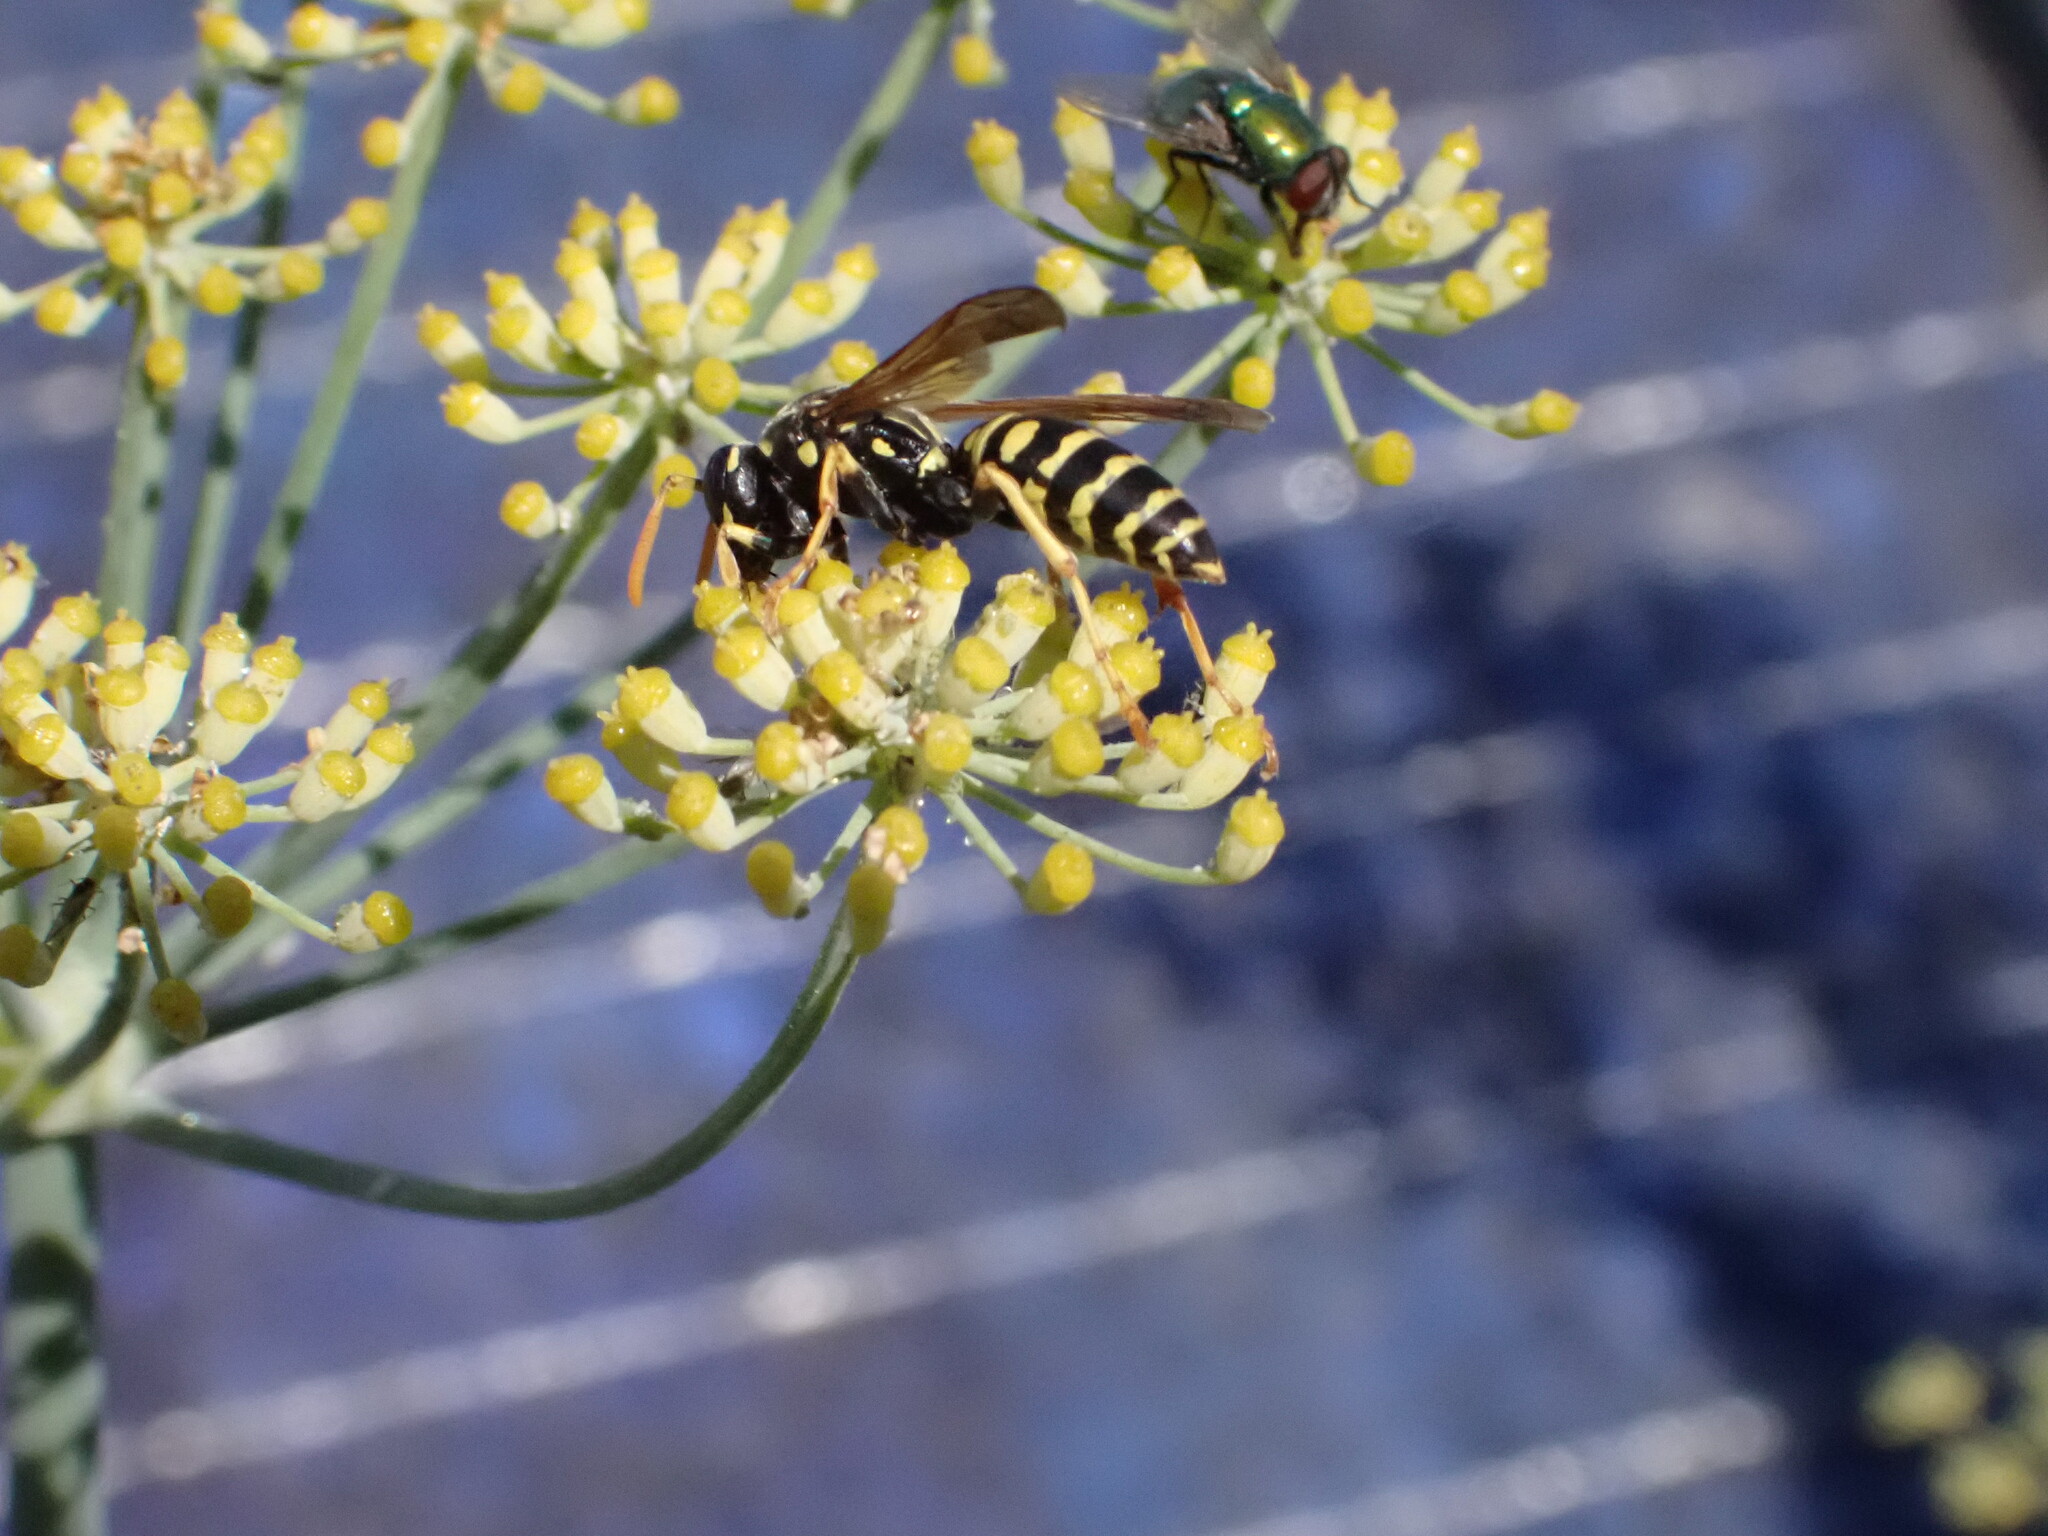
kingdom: Animalia
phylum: Arthropoda
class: Insecta
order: Hymenoptera
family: Eumenidae
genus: Polistes
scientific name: Polistes dominula
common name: Paper wasp
